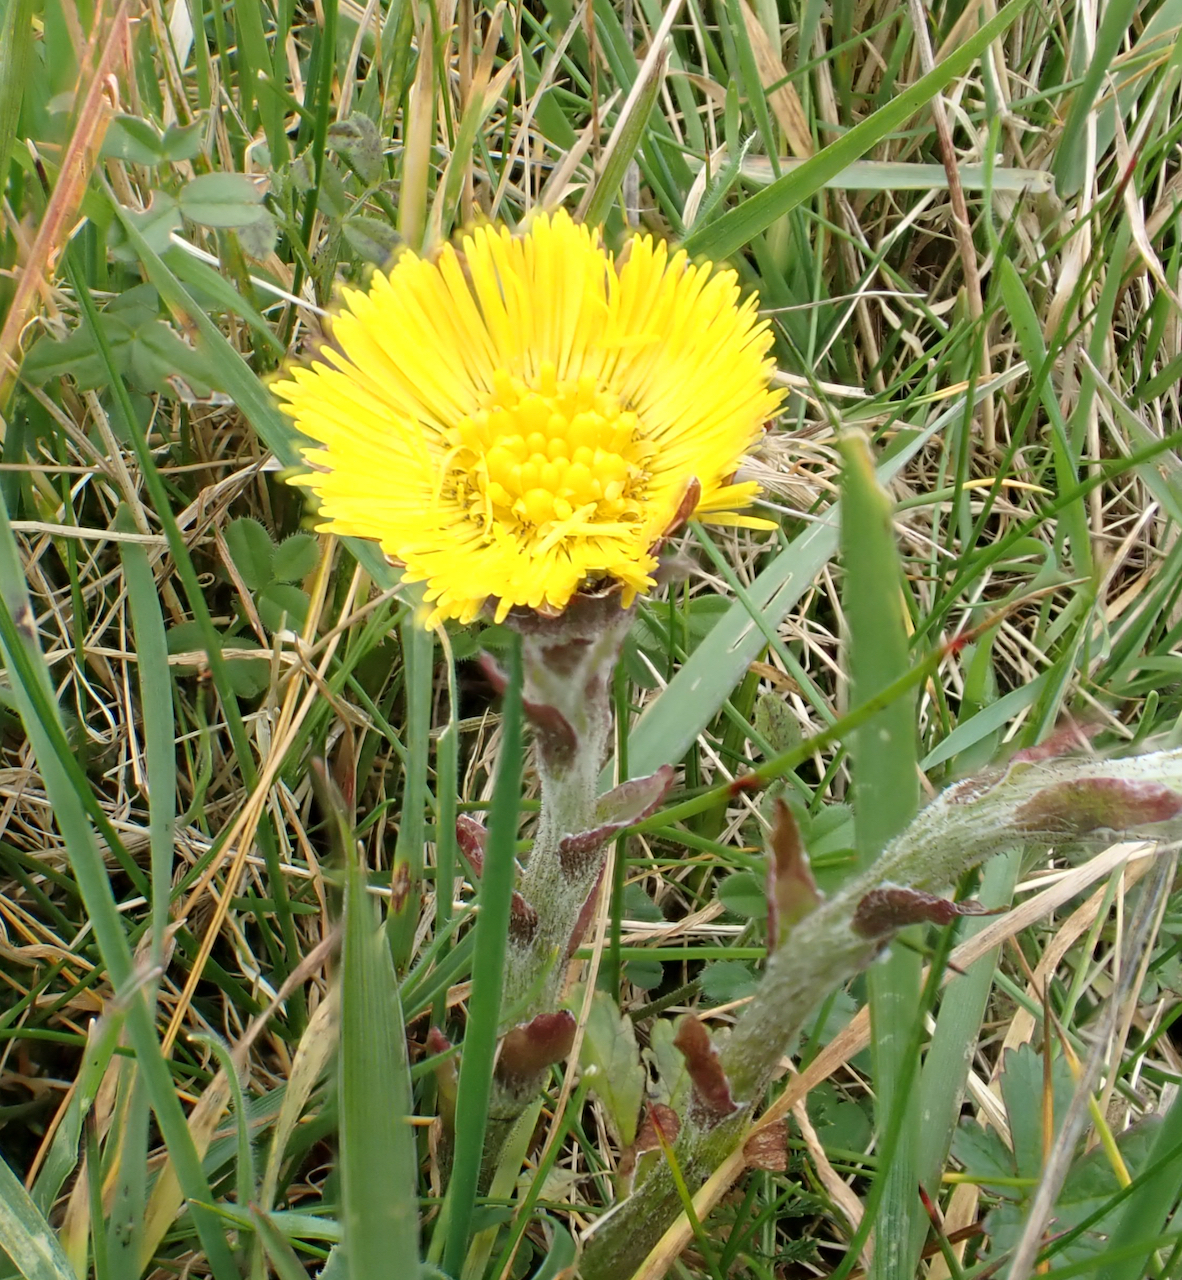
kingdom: Plantae
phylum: Tracheophyta
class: Magnoliopsida
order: Asterales
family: Asteraceae
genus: Tussilago
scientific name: Tussilago farfara
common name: Coltsfoot
